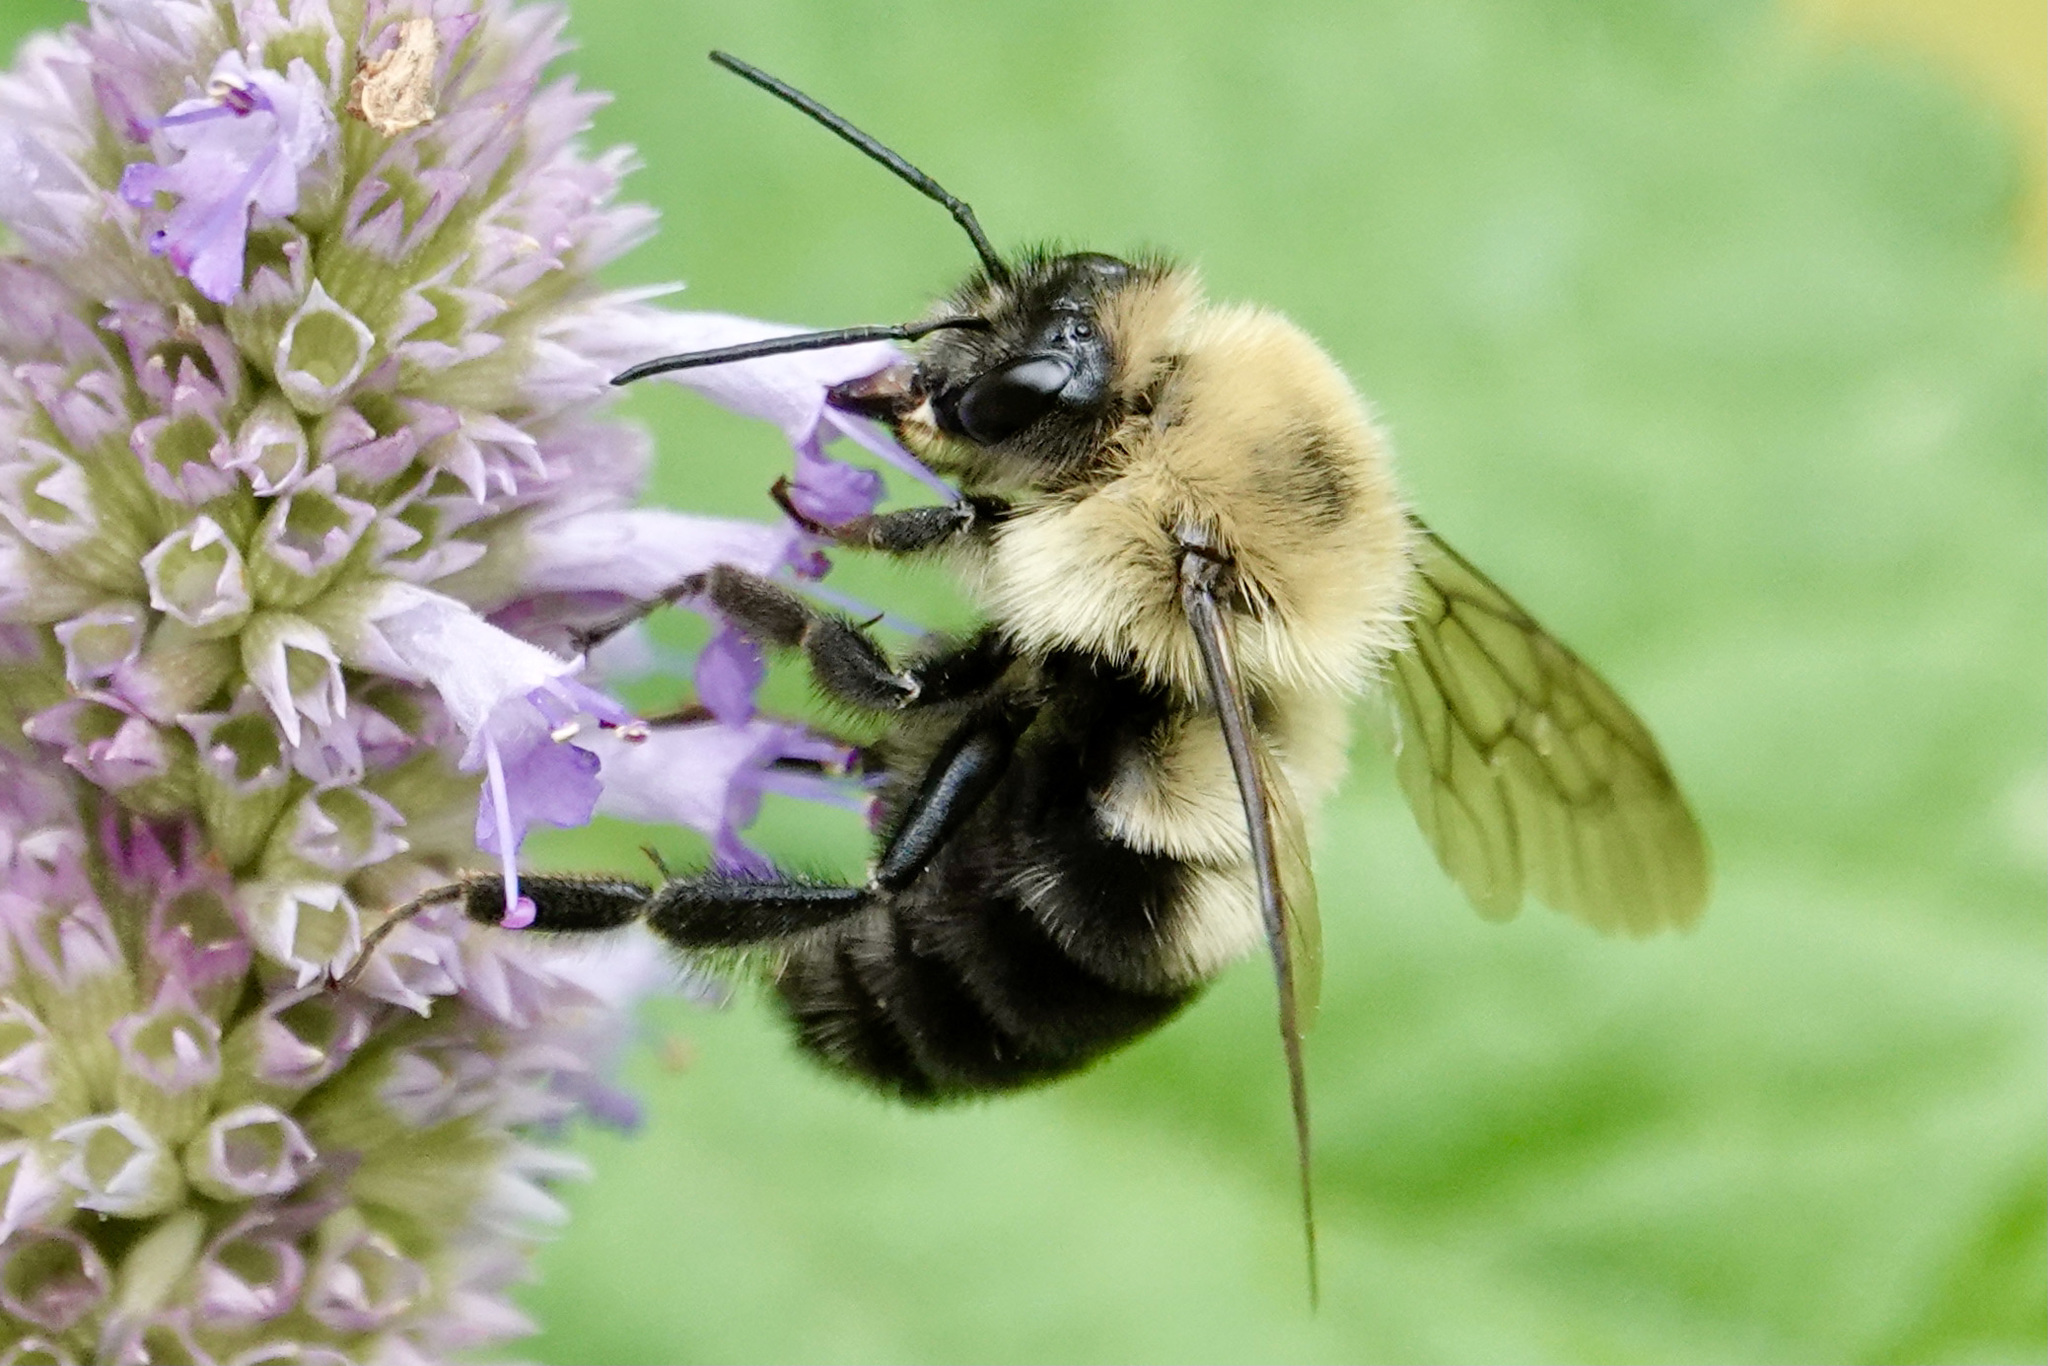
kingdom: Animalia
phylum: Arthropoda
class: Insecta
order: Hymenoptera
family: Apidae
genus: Bombus
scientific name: Bombus bimaculatus
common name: Two-spotted bumble bee
